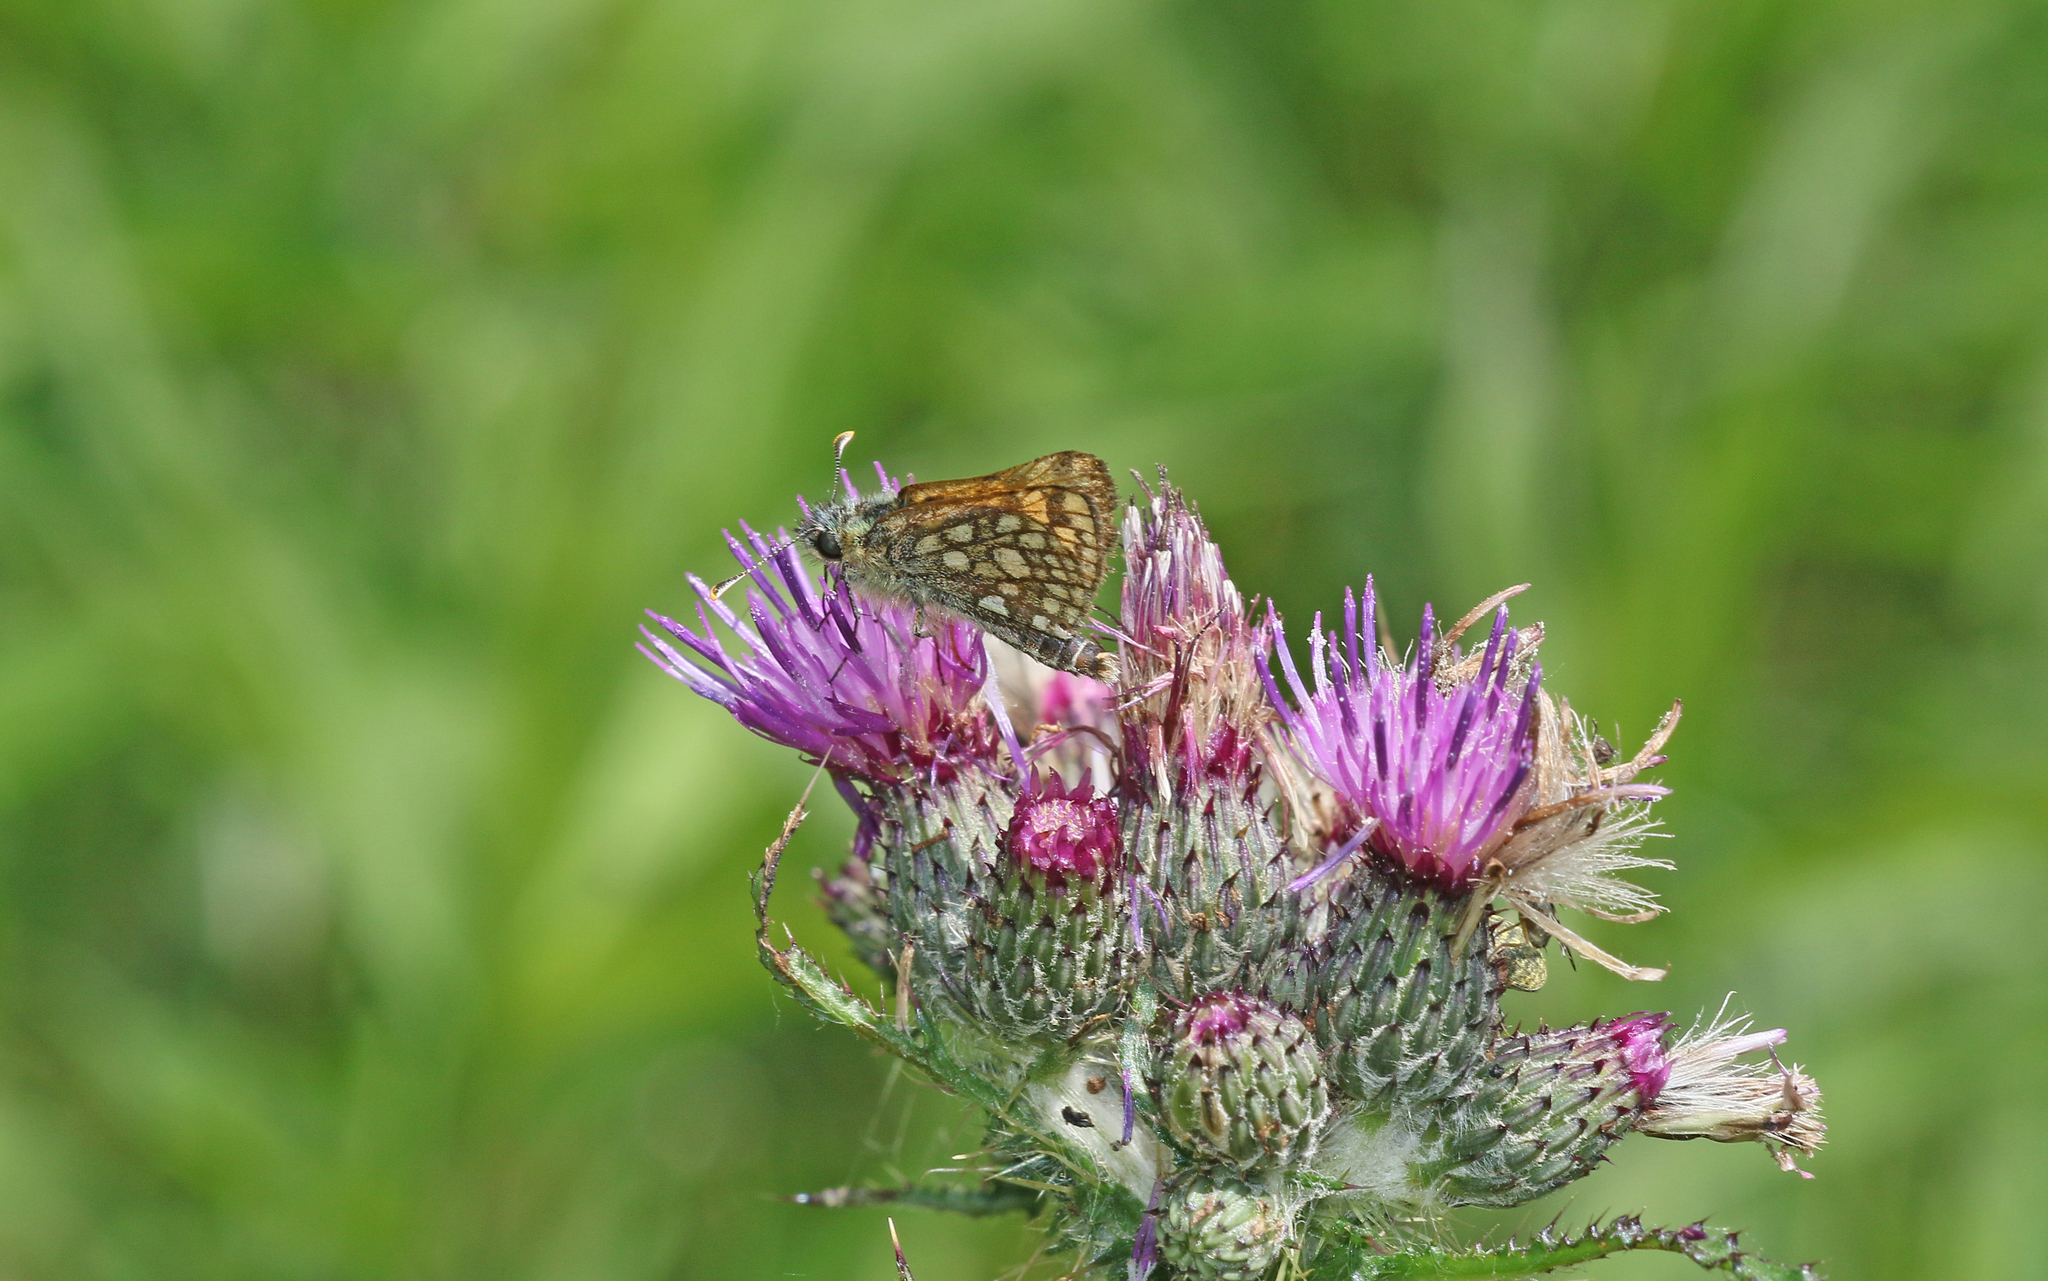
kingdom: Animalia
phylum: Arthropoda
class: Insecta
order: Lepidoptera
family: Hesperiidae
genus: Carterocephalus
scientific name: Carterocephalus palaemon
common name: Chequered skipper
